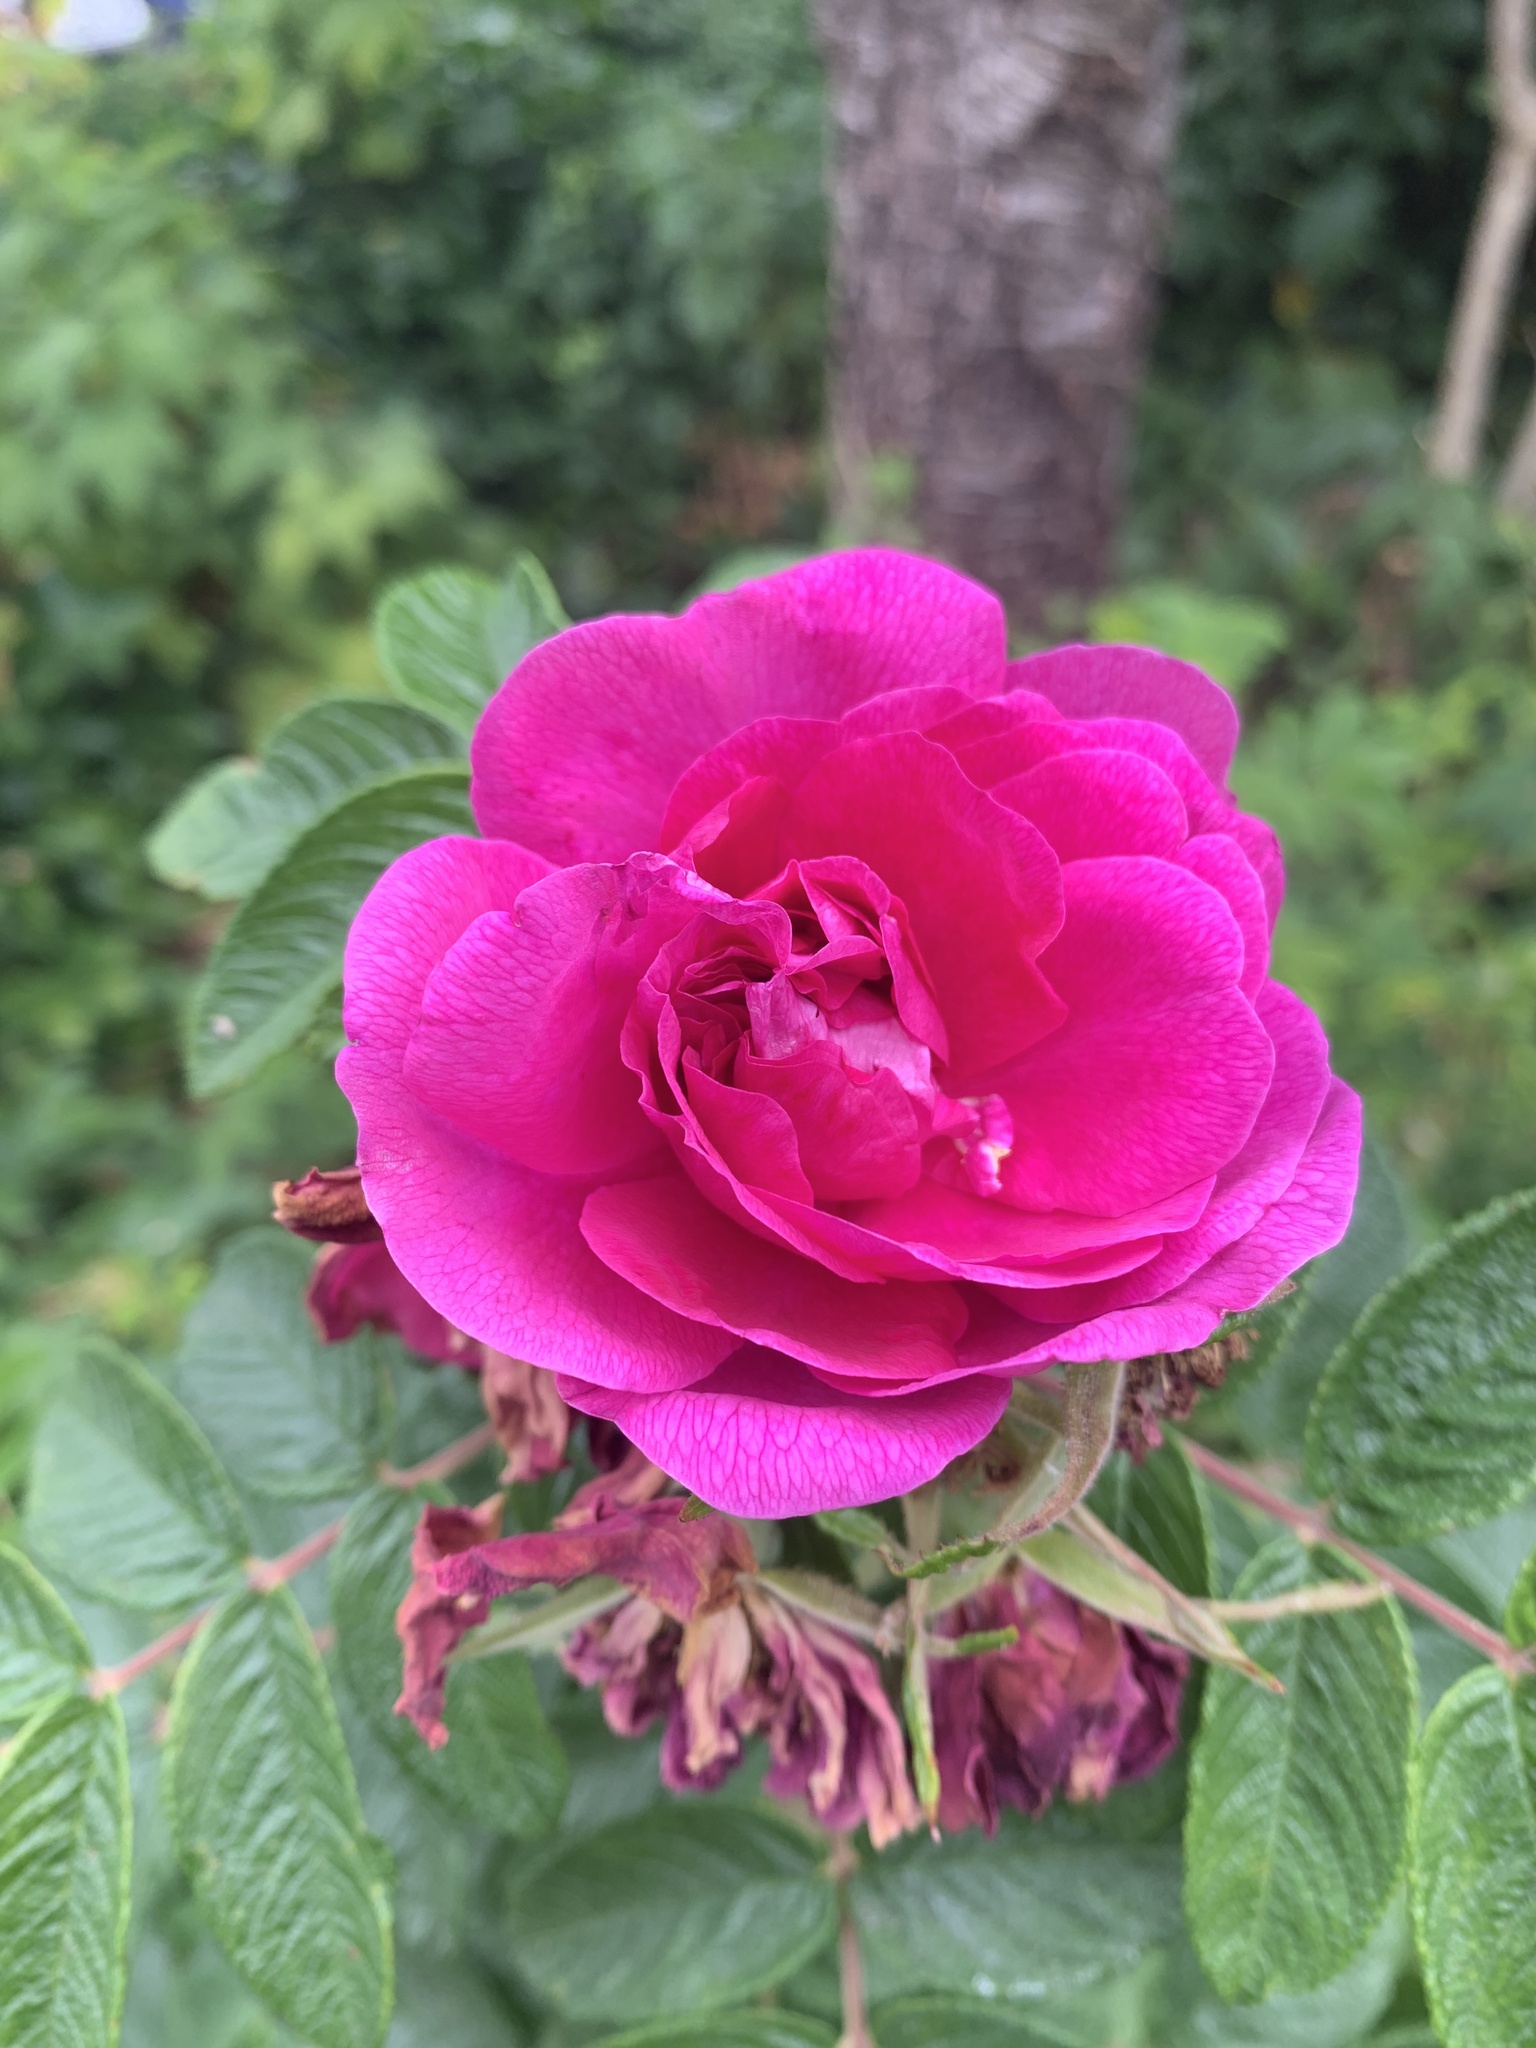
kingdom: Plantae
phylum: Tracheophyta
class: Magnoliopsida
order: Rosales
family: Rosaceae
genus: Rosa
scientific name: Rosa rugosa
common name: Japanese rose
